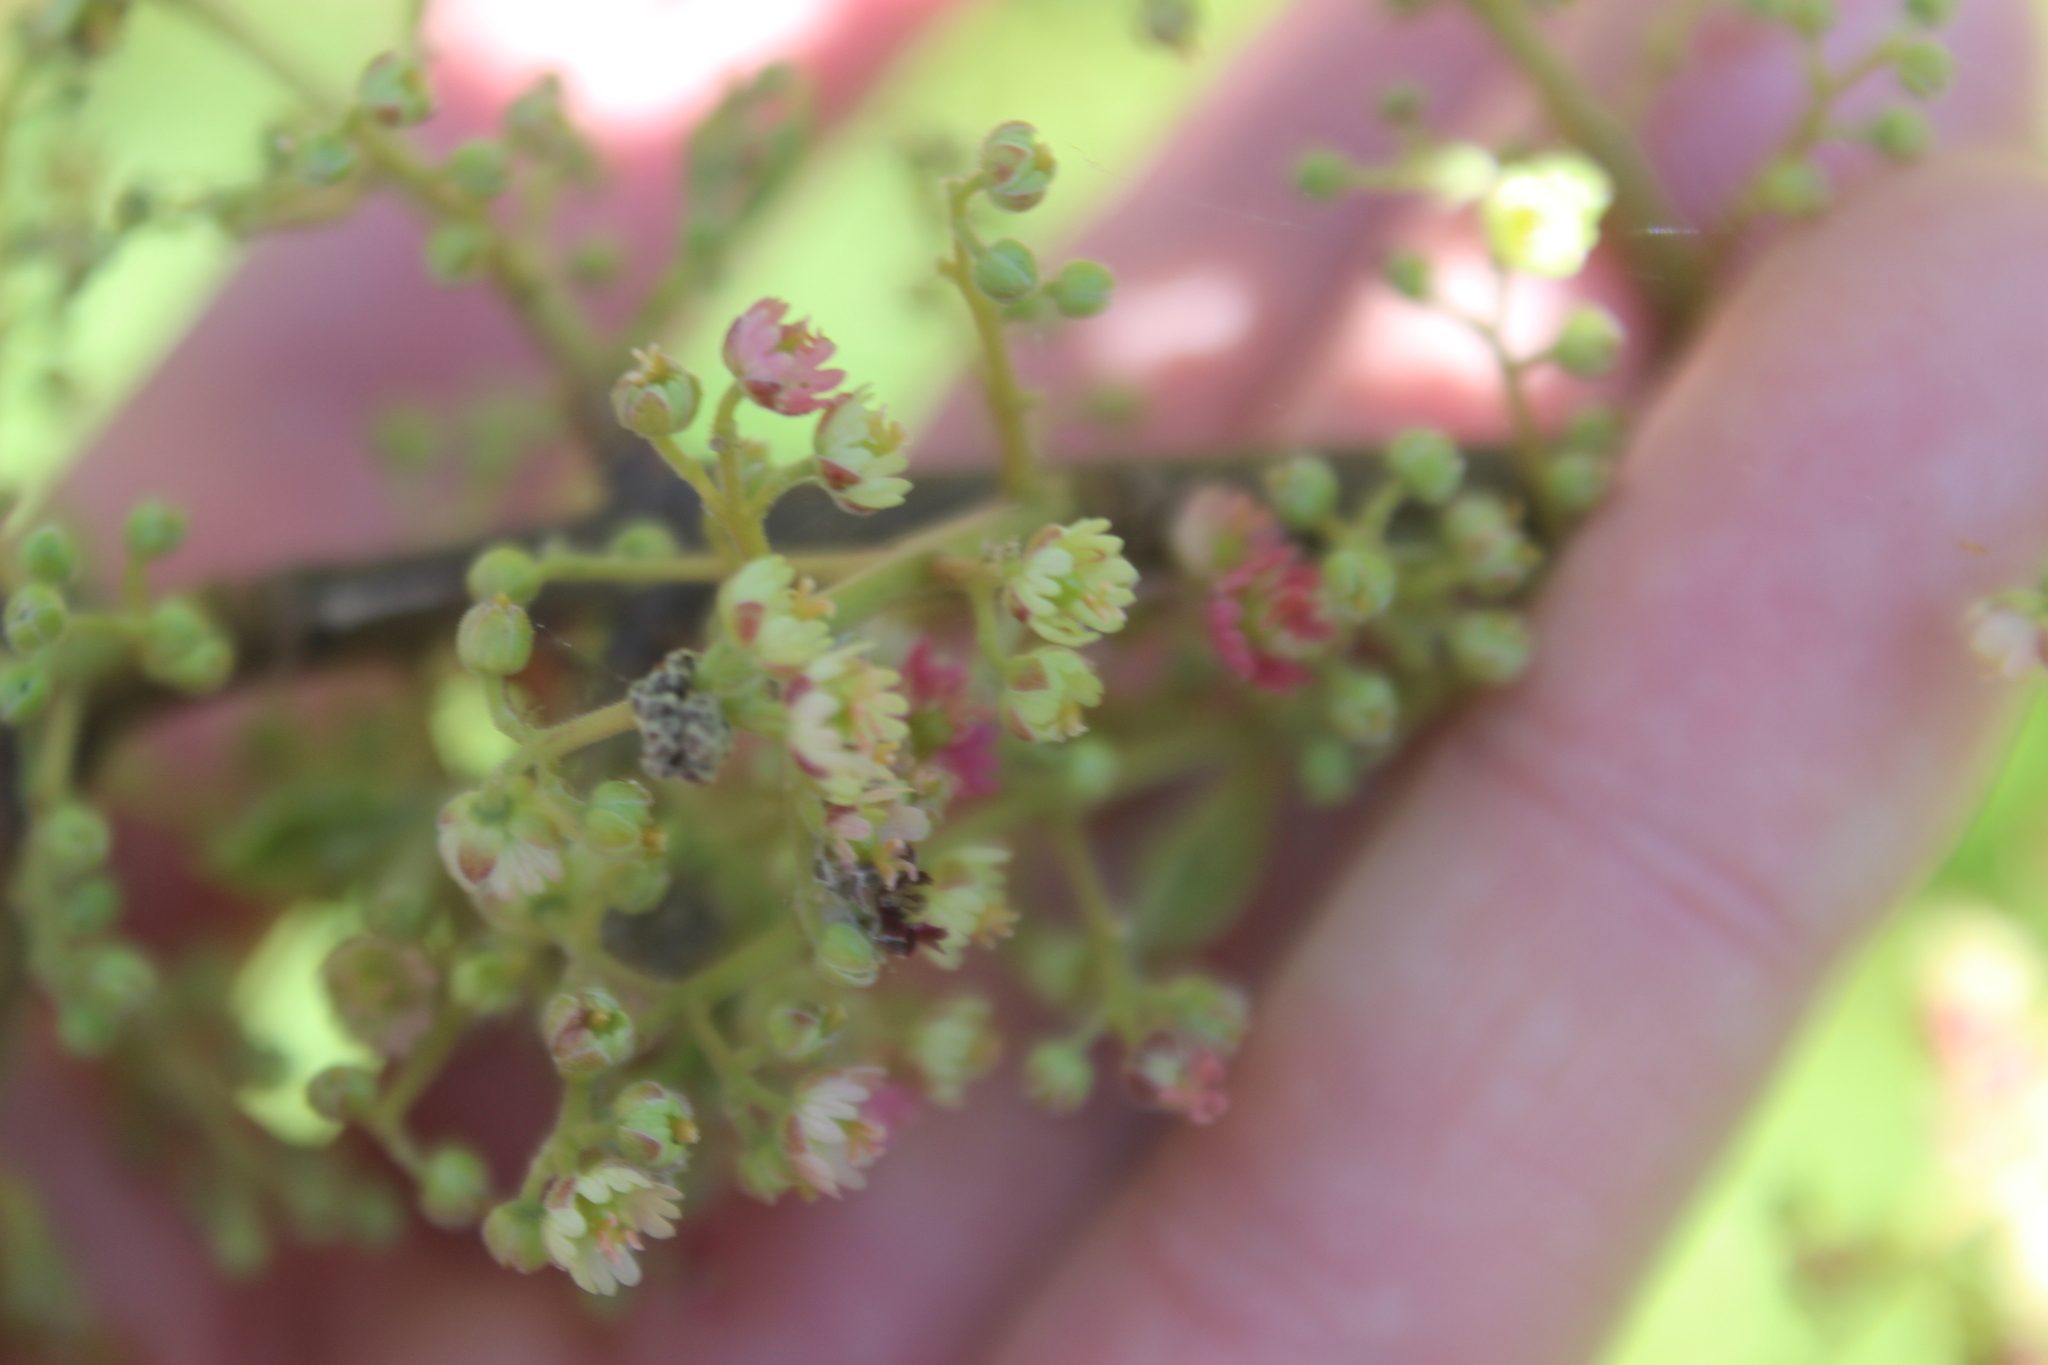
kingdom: Plantae
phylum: Tracheophyta
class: Magnoliopsida
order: Oxalidales
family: Elaeocarpaceae
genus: Aristotelia
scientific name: Aristotelia serrata
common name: New zealand wineberry
